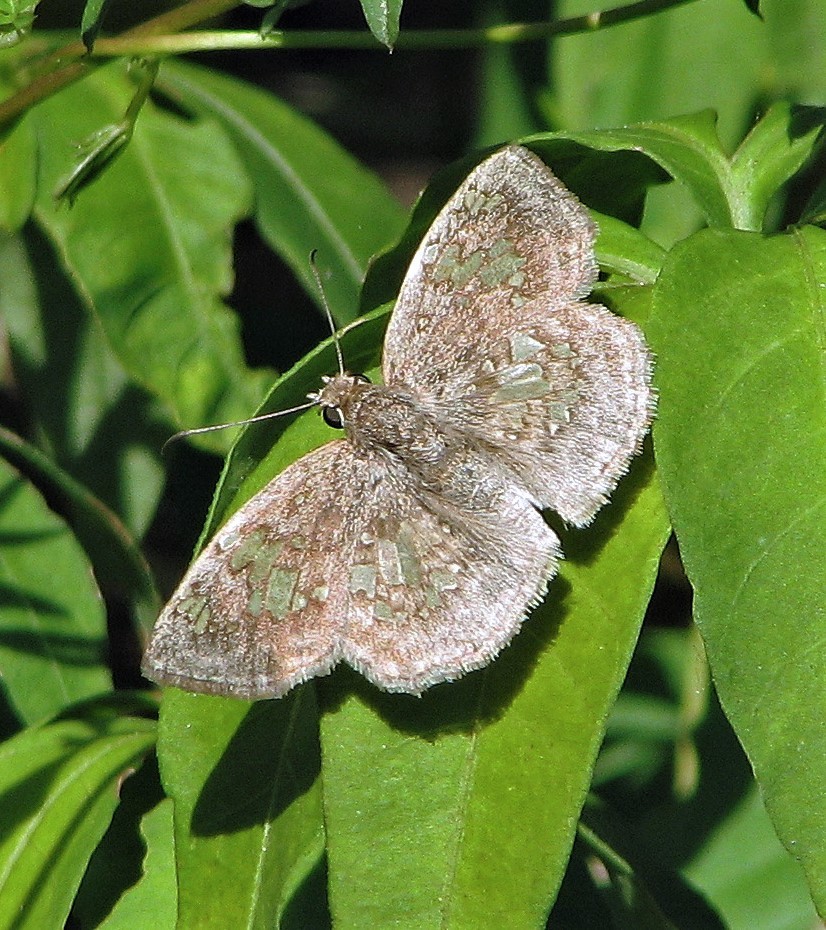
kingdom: Animalia
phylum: Arthropoda
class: Insecta
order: Lepidoptera
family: Hesperiidae
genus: Xenophanes
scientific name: Xenophanes tryxus
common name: Glassy-winged skipper
